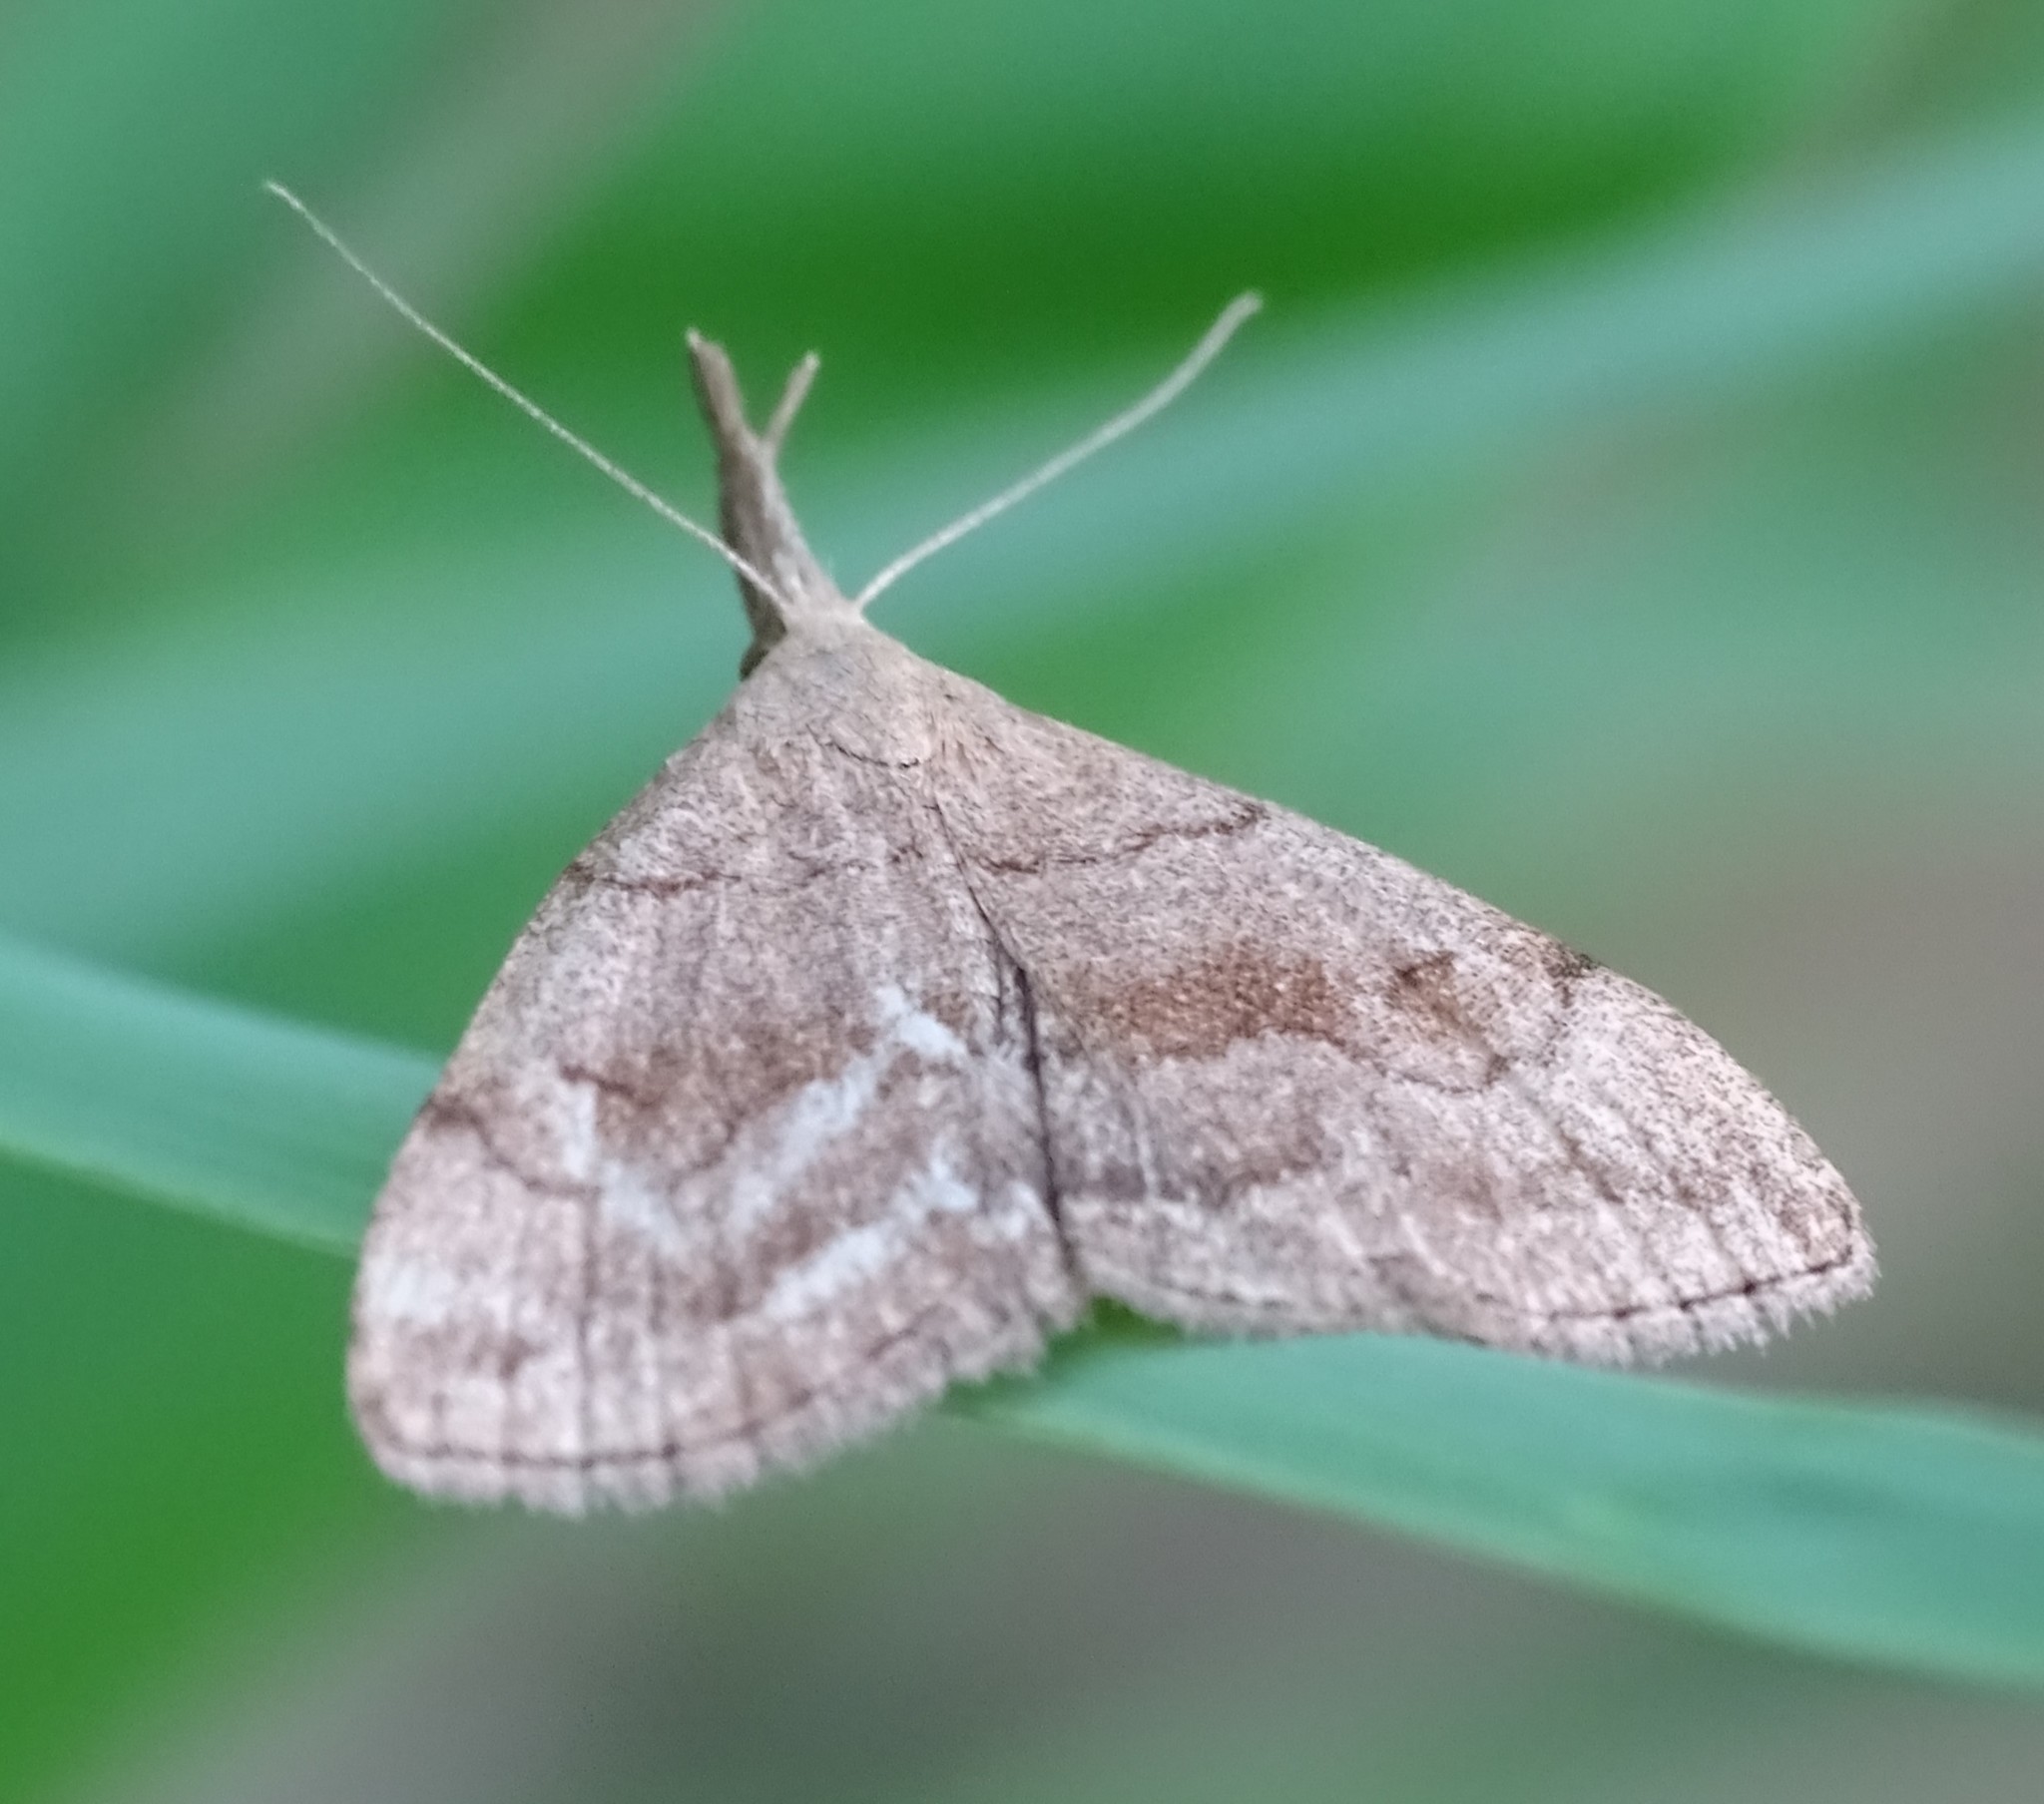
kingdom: Animalia
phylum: Arthropoda
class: Insecta
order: Lepidoptera
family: Erebidae
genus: Phalaenostola
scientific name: Phalaenostola metonalis
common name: Pale phalaenostola moth
